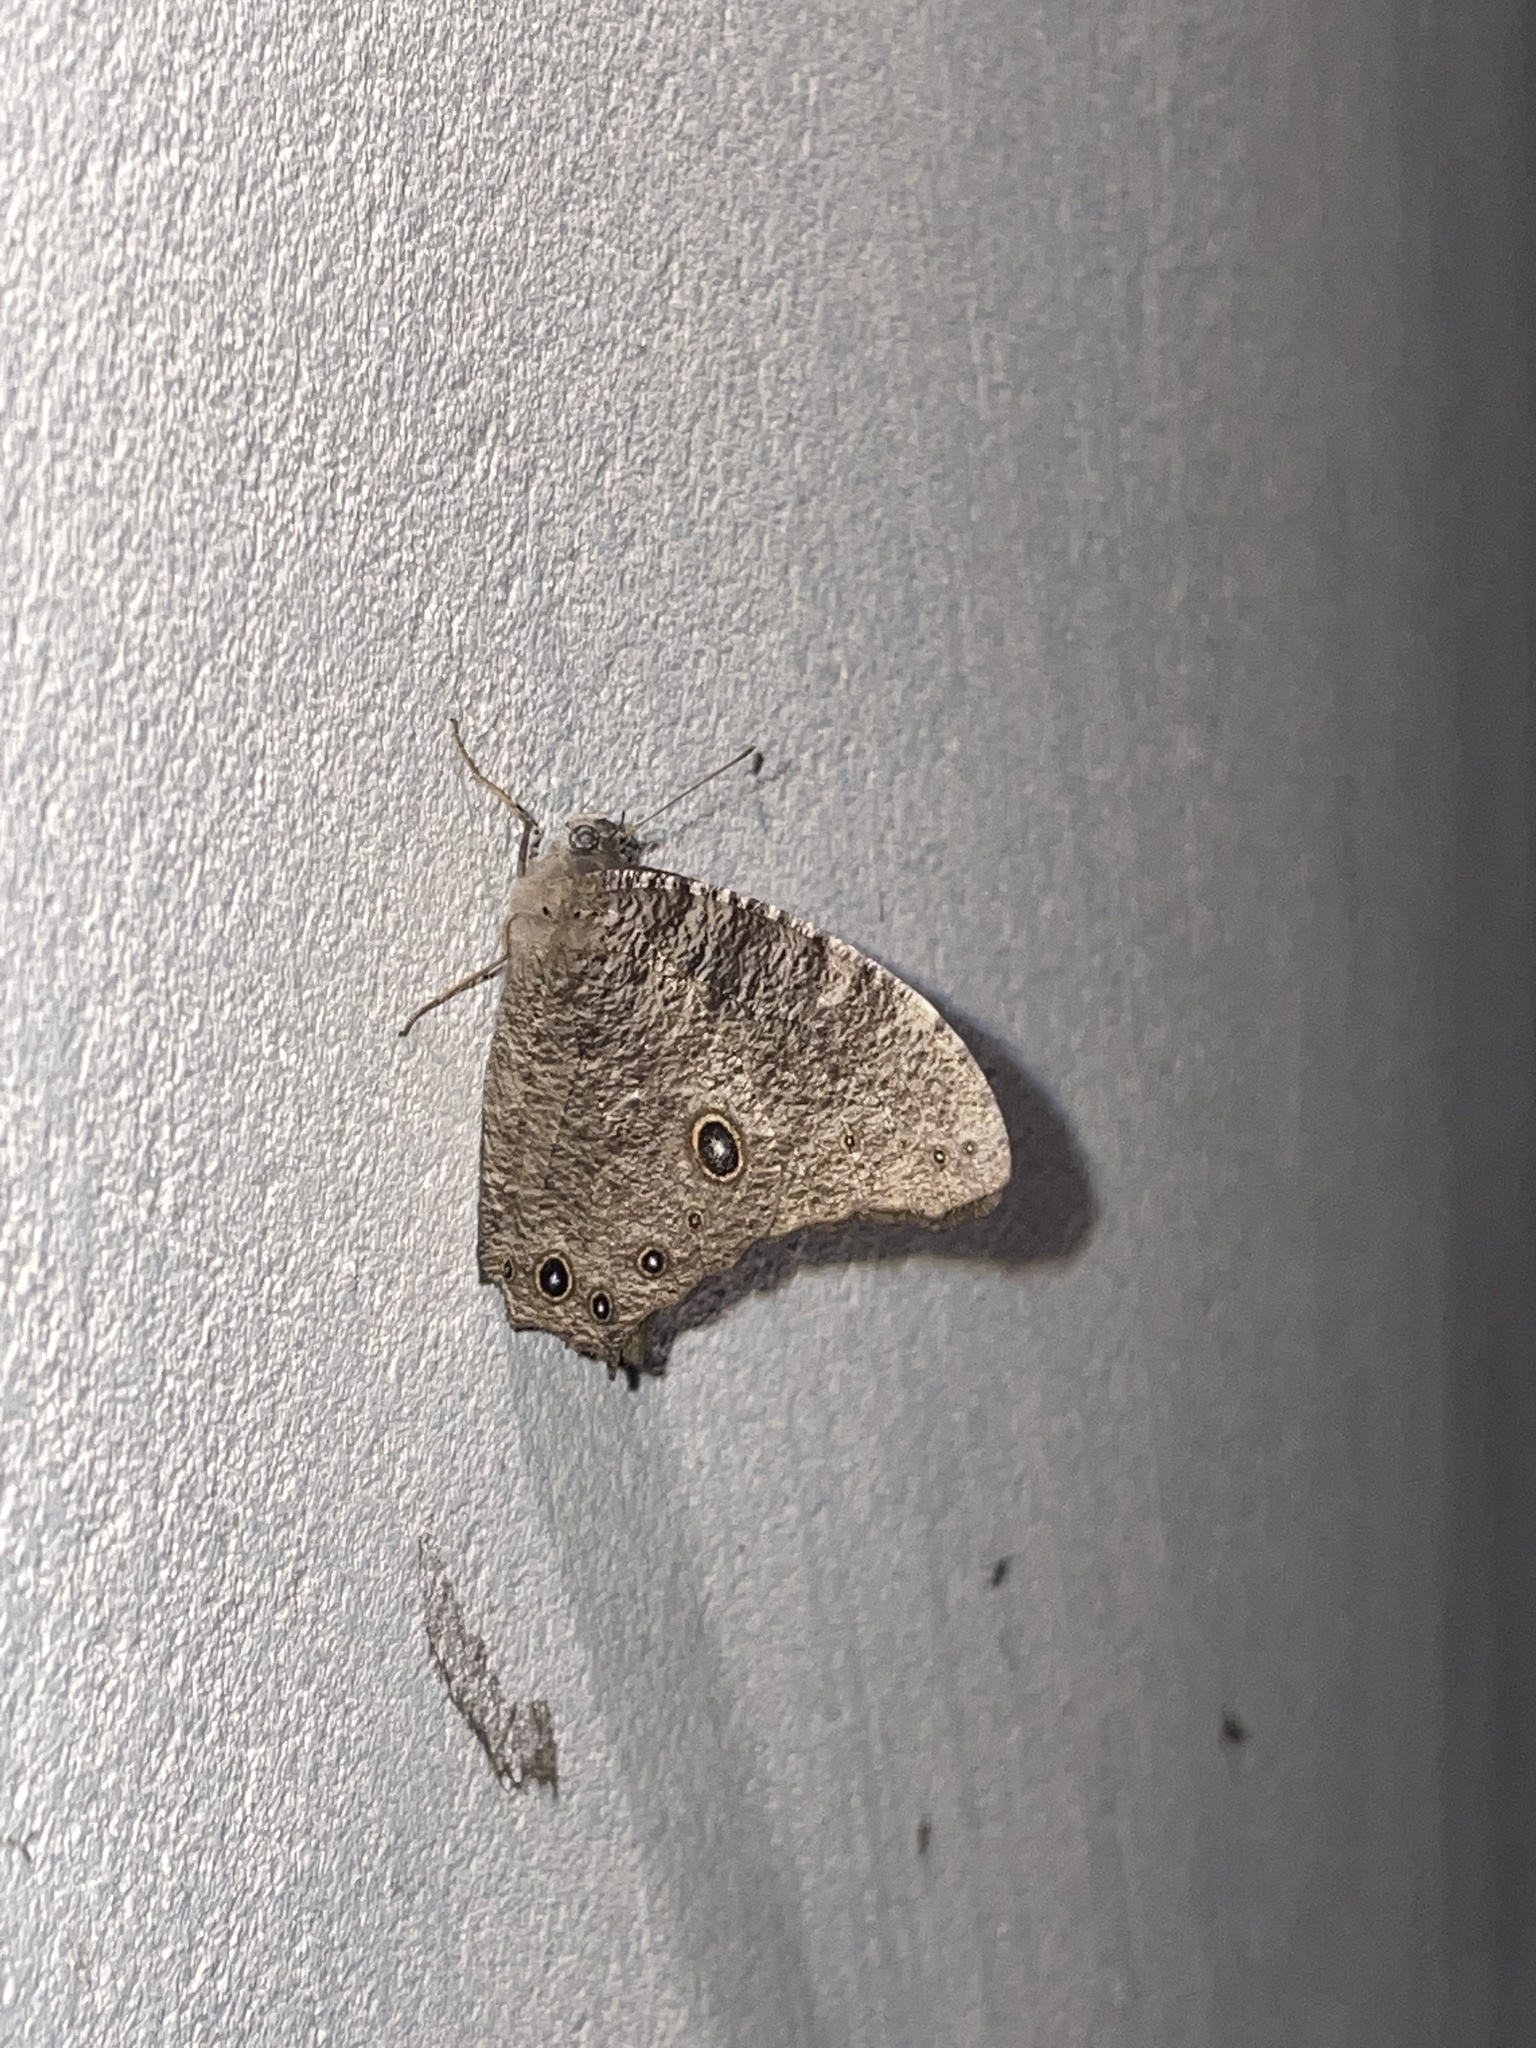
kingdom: Animalia
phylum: Arthropoda
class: Insecta
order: Lepidoptera
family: Nymphalidae
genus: Melanitis
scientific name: Melanitis leda
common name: Twilight brown
